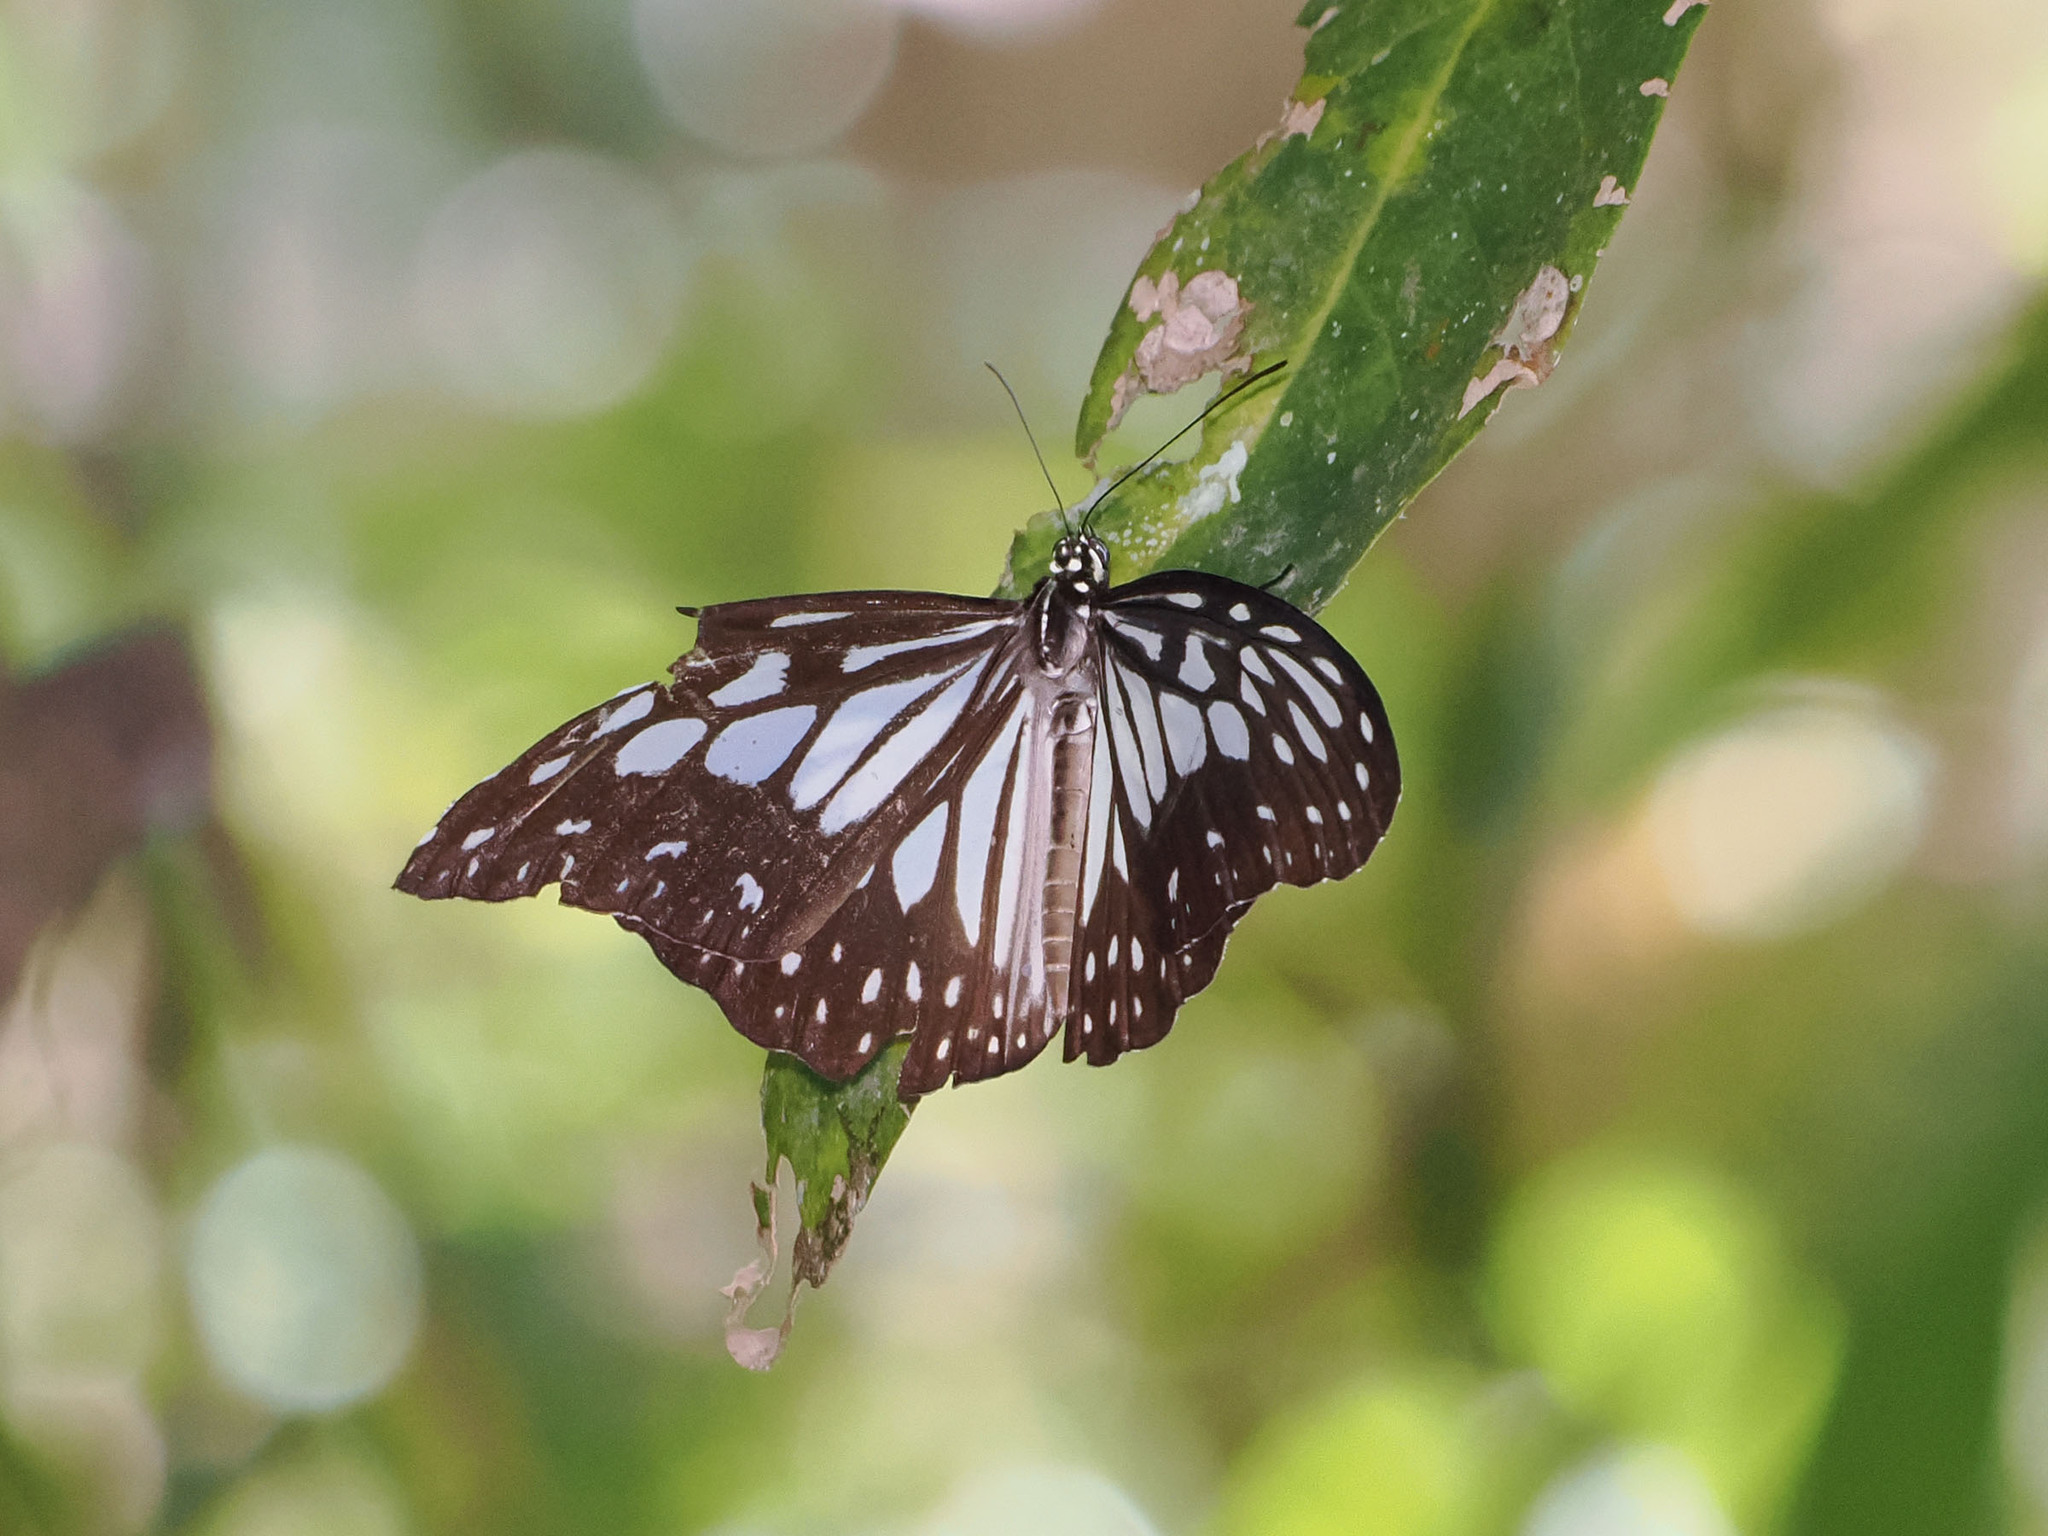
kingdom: Animalia
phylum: Arthropoda
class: Insecta
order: Lepidoptera
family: Nymphalidae
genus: Ideopsis
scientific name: Ideopsis juventa
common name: Grey glassy tiger
